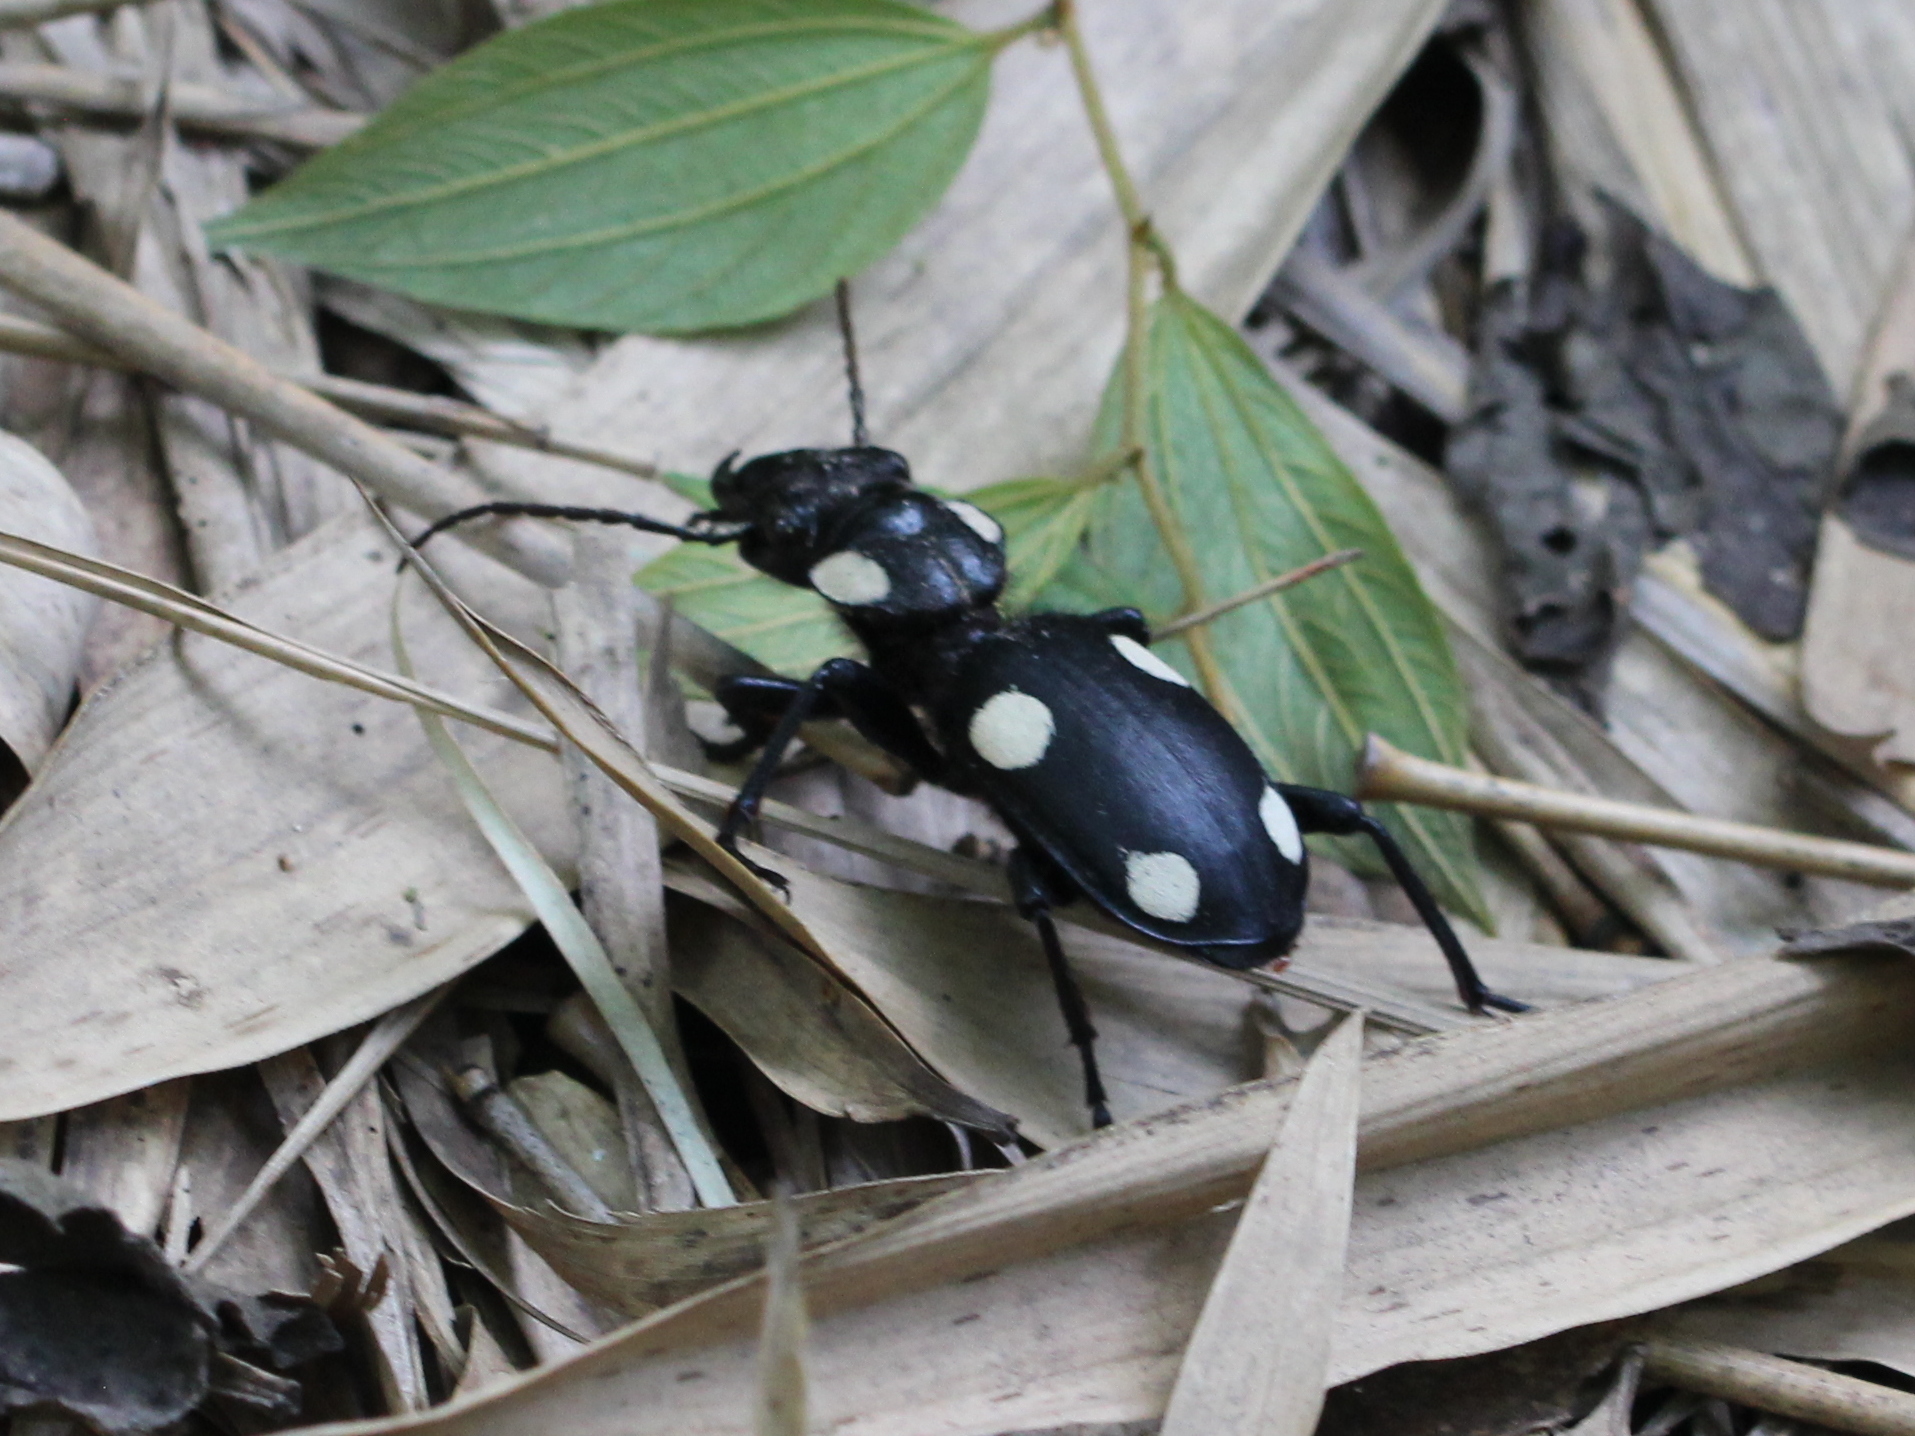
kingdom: Animalia
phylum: Arthropoda
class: Insecta
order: Coleoptera
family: Carabidae
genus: Anthia
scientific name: Anthia sexguttata
